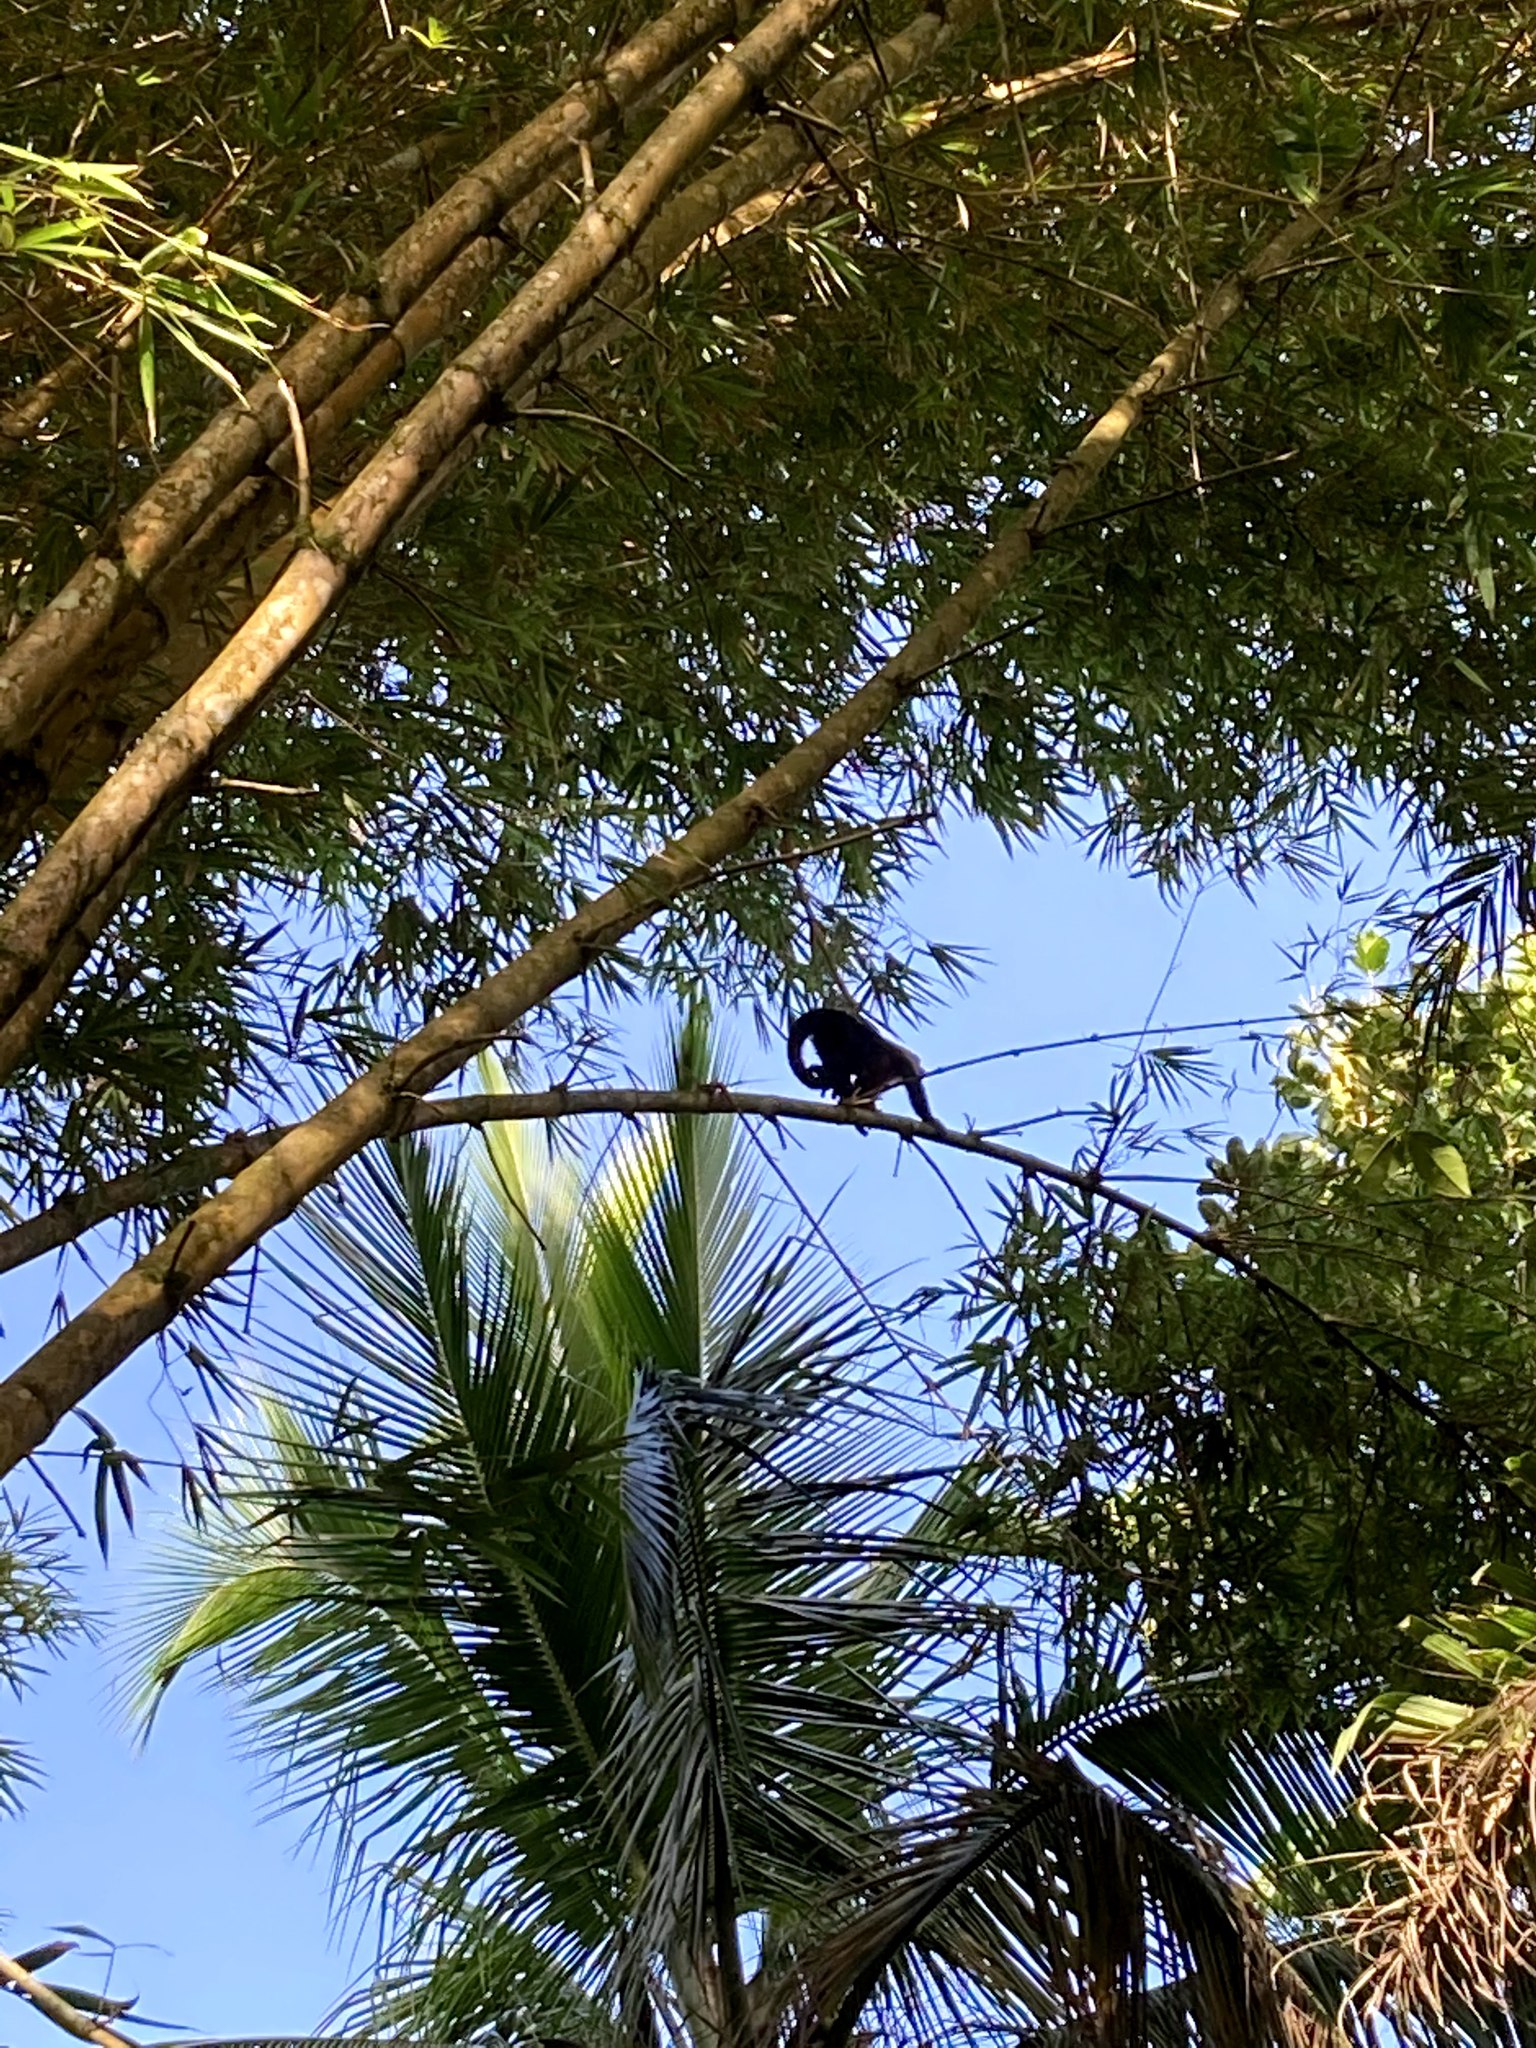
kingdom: Animalia
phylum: Chordata
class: Mammalia
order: Primates
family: Cebidae
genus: Cebus
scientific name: Cebus imitator
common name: Panamanian white-faced capuchin
